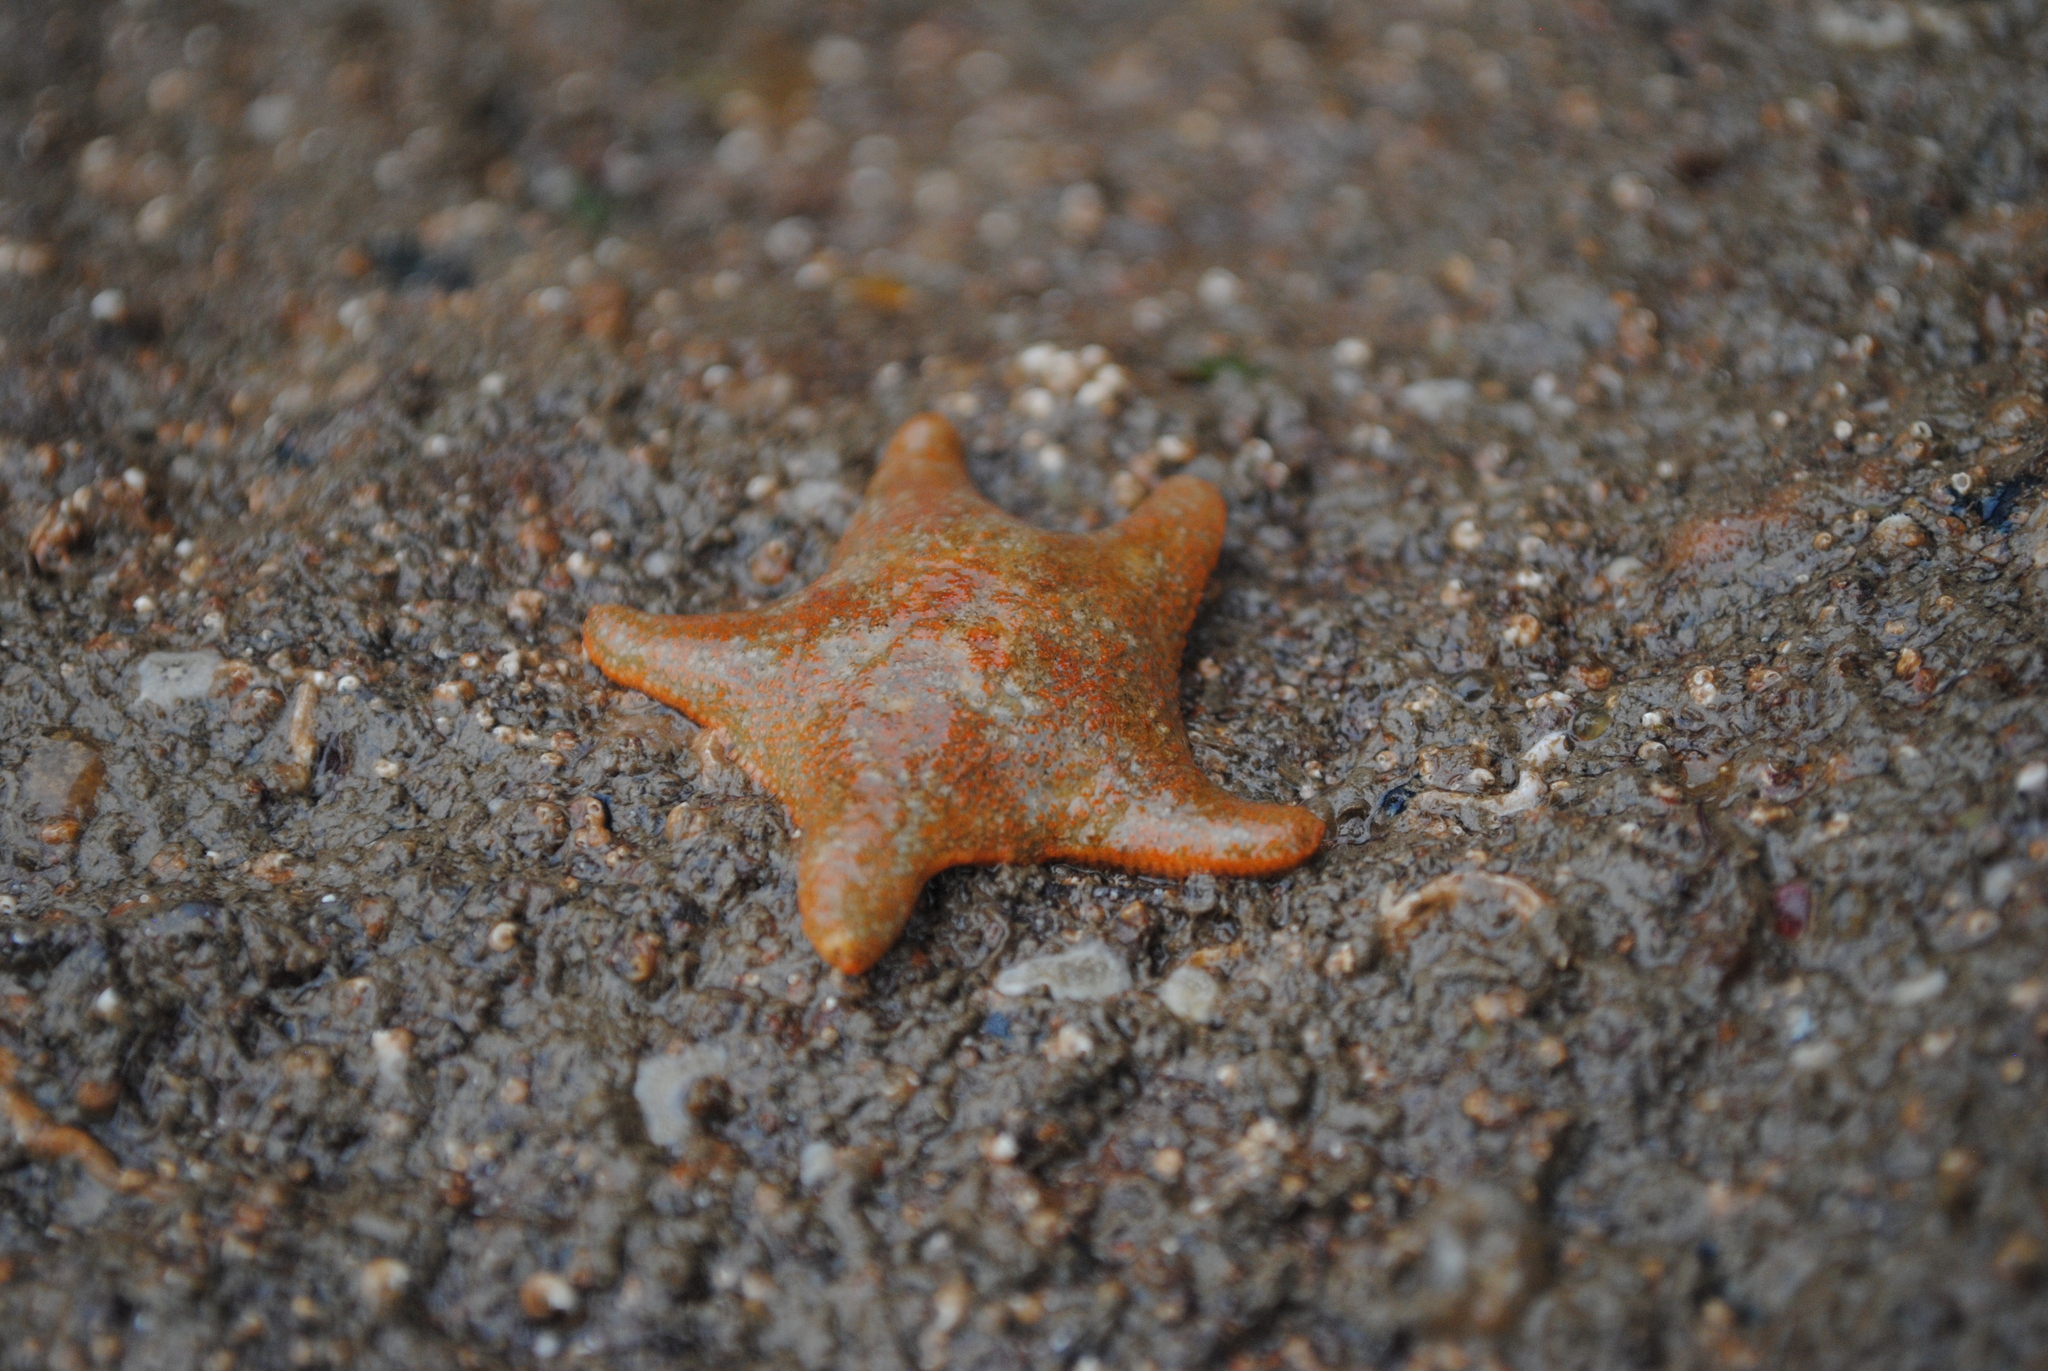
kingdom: Animalia
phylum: Echinodermata
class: Asteroidea
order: Valvatida
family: Asterinidae
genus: Asterina
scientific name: Asterina gibbosa
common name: Cushion star
